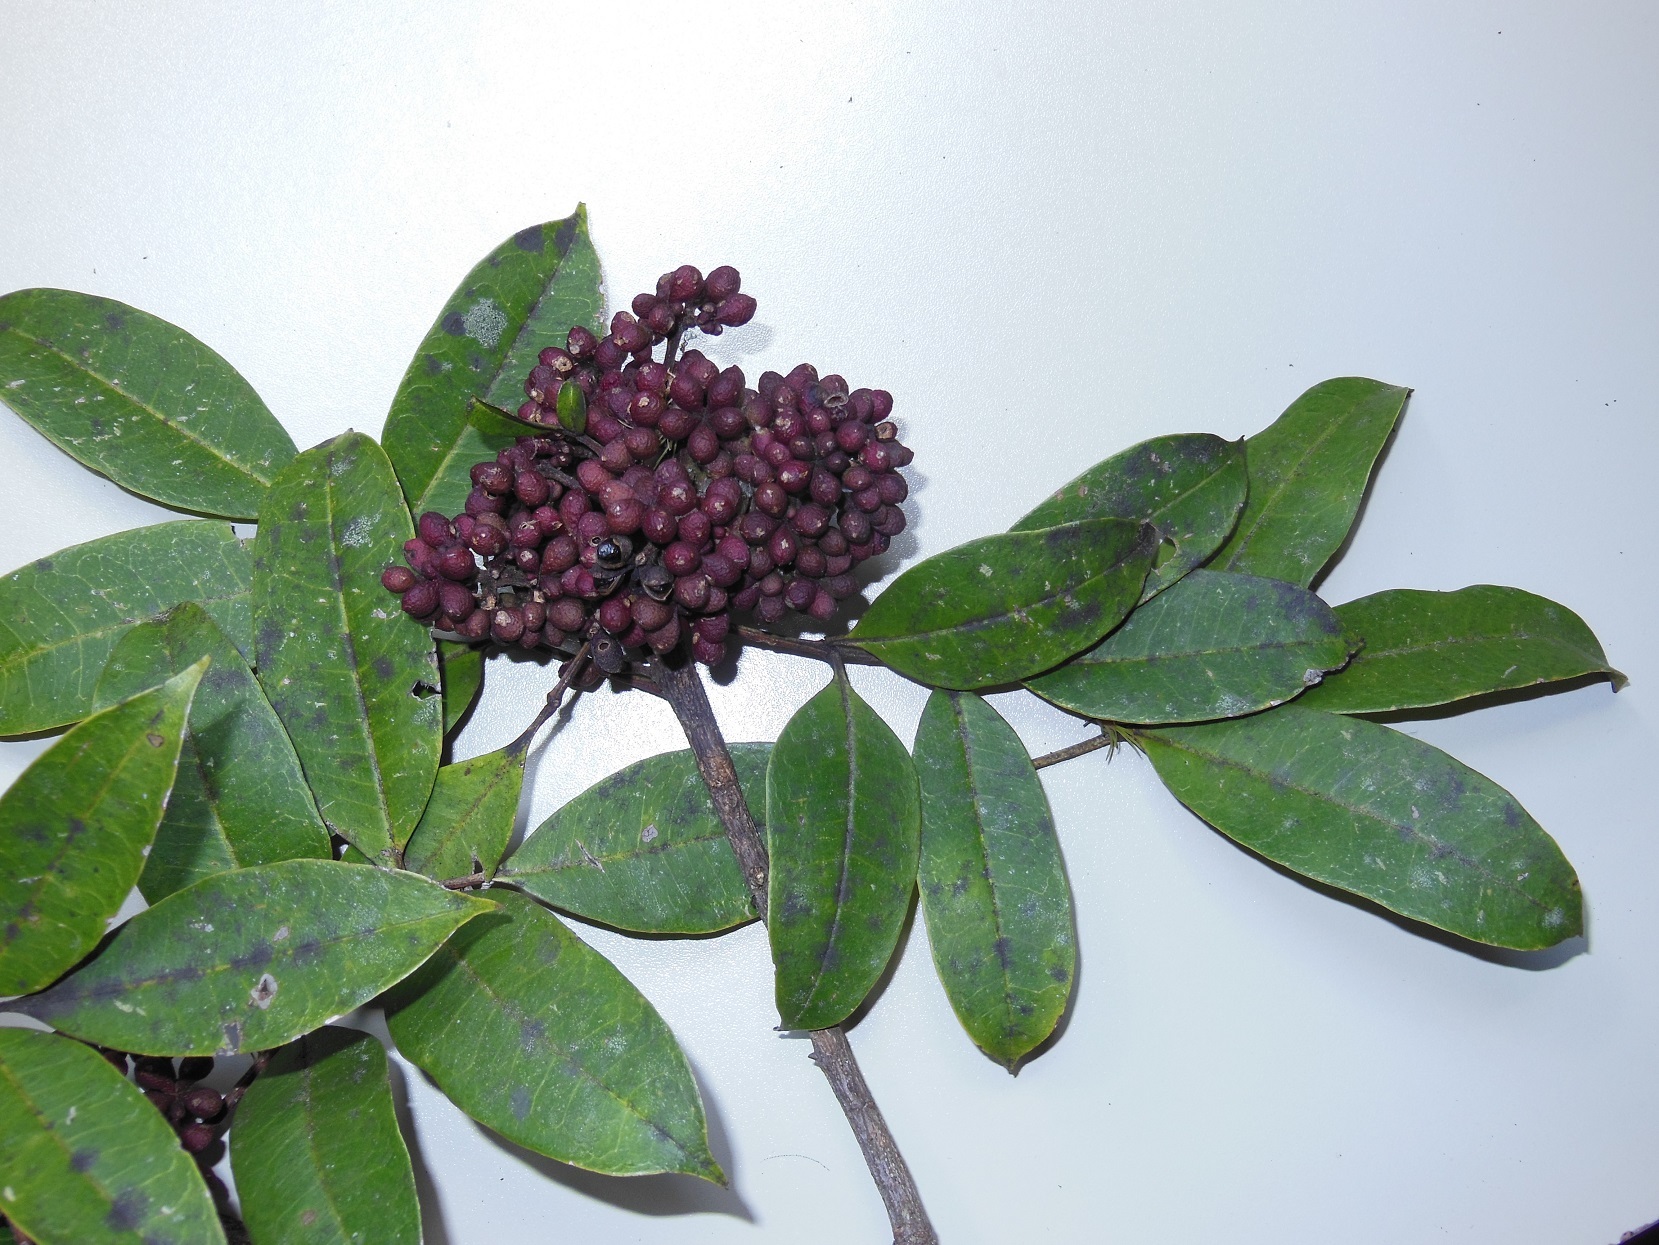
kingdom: Plantae
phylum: Tracheophyta
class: Magnoliopsida
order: Sapindales
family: Rutaceae
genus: Zanthoxylum
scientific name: Zanthoxylum melanostictum
